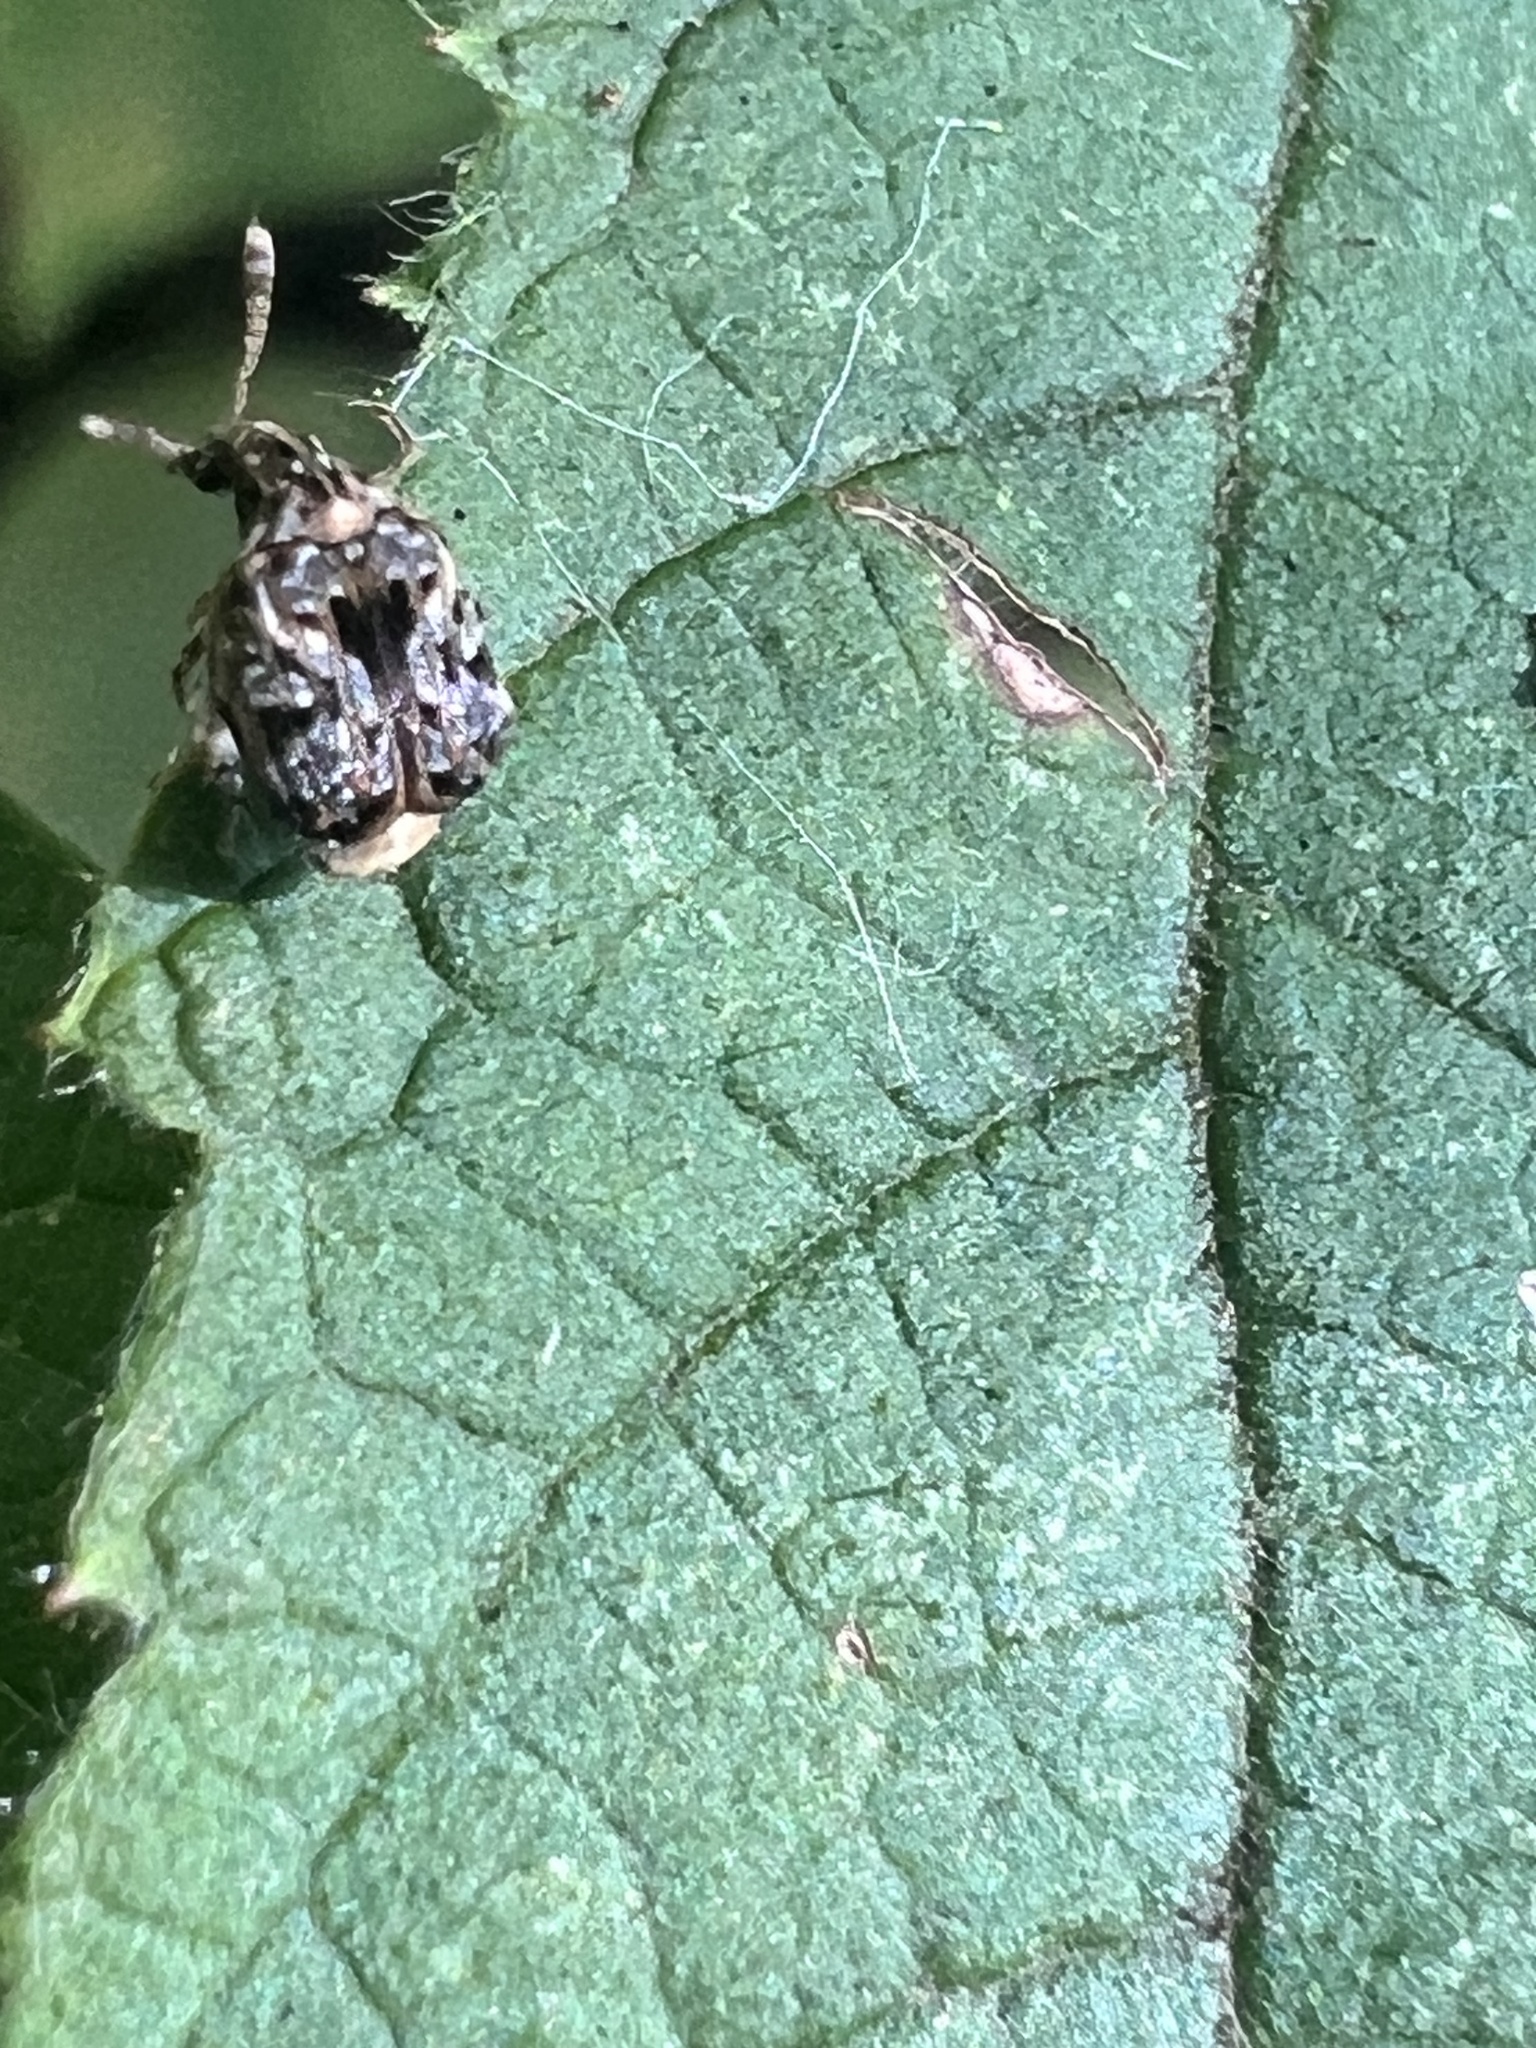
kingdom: Animalia
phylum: Arthropoda
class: Insecta
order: Coleoptera
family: Chrysomelidae
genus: Gibbobruchus
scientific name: Gibbobruchus mimus
